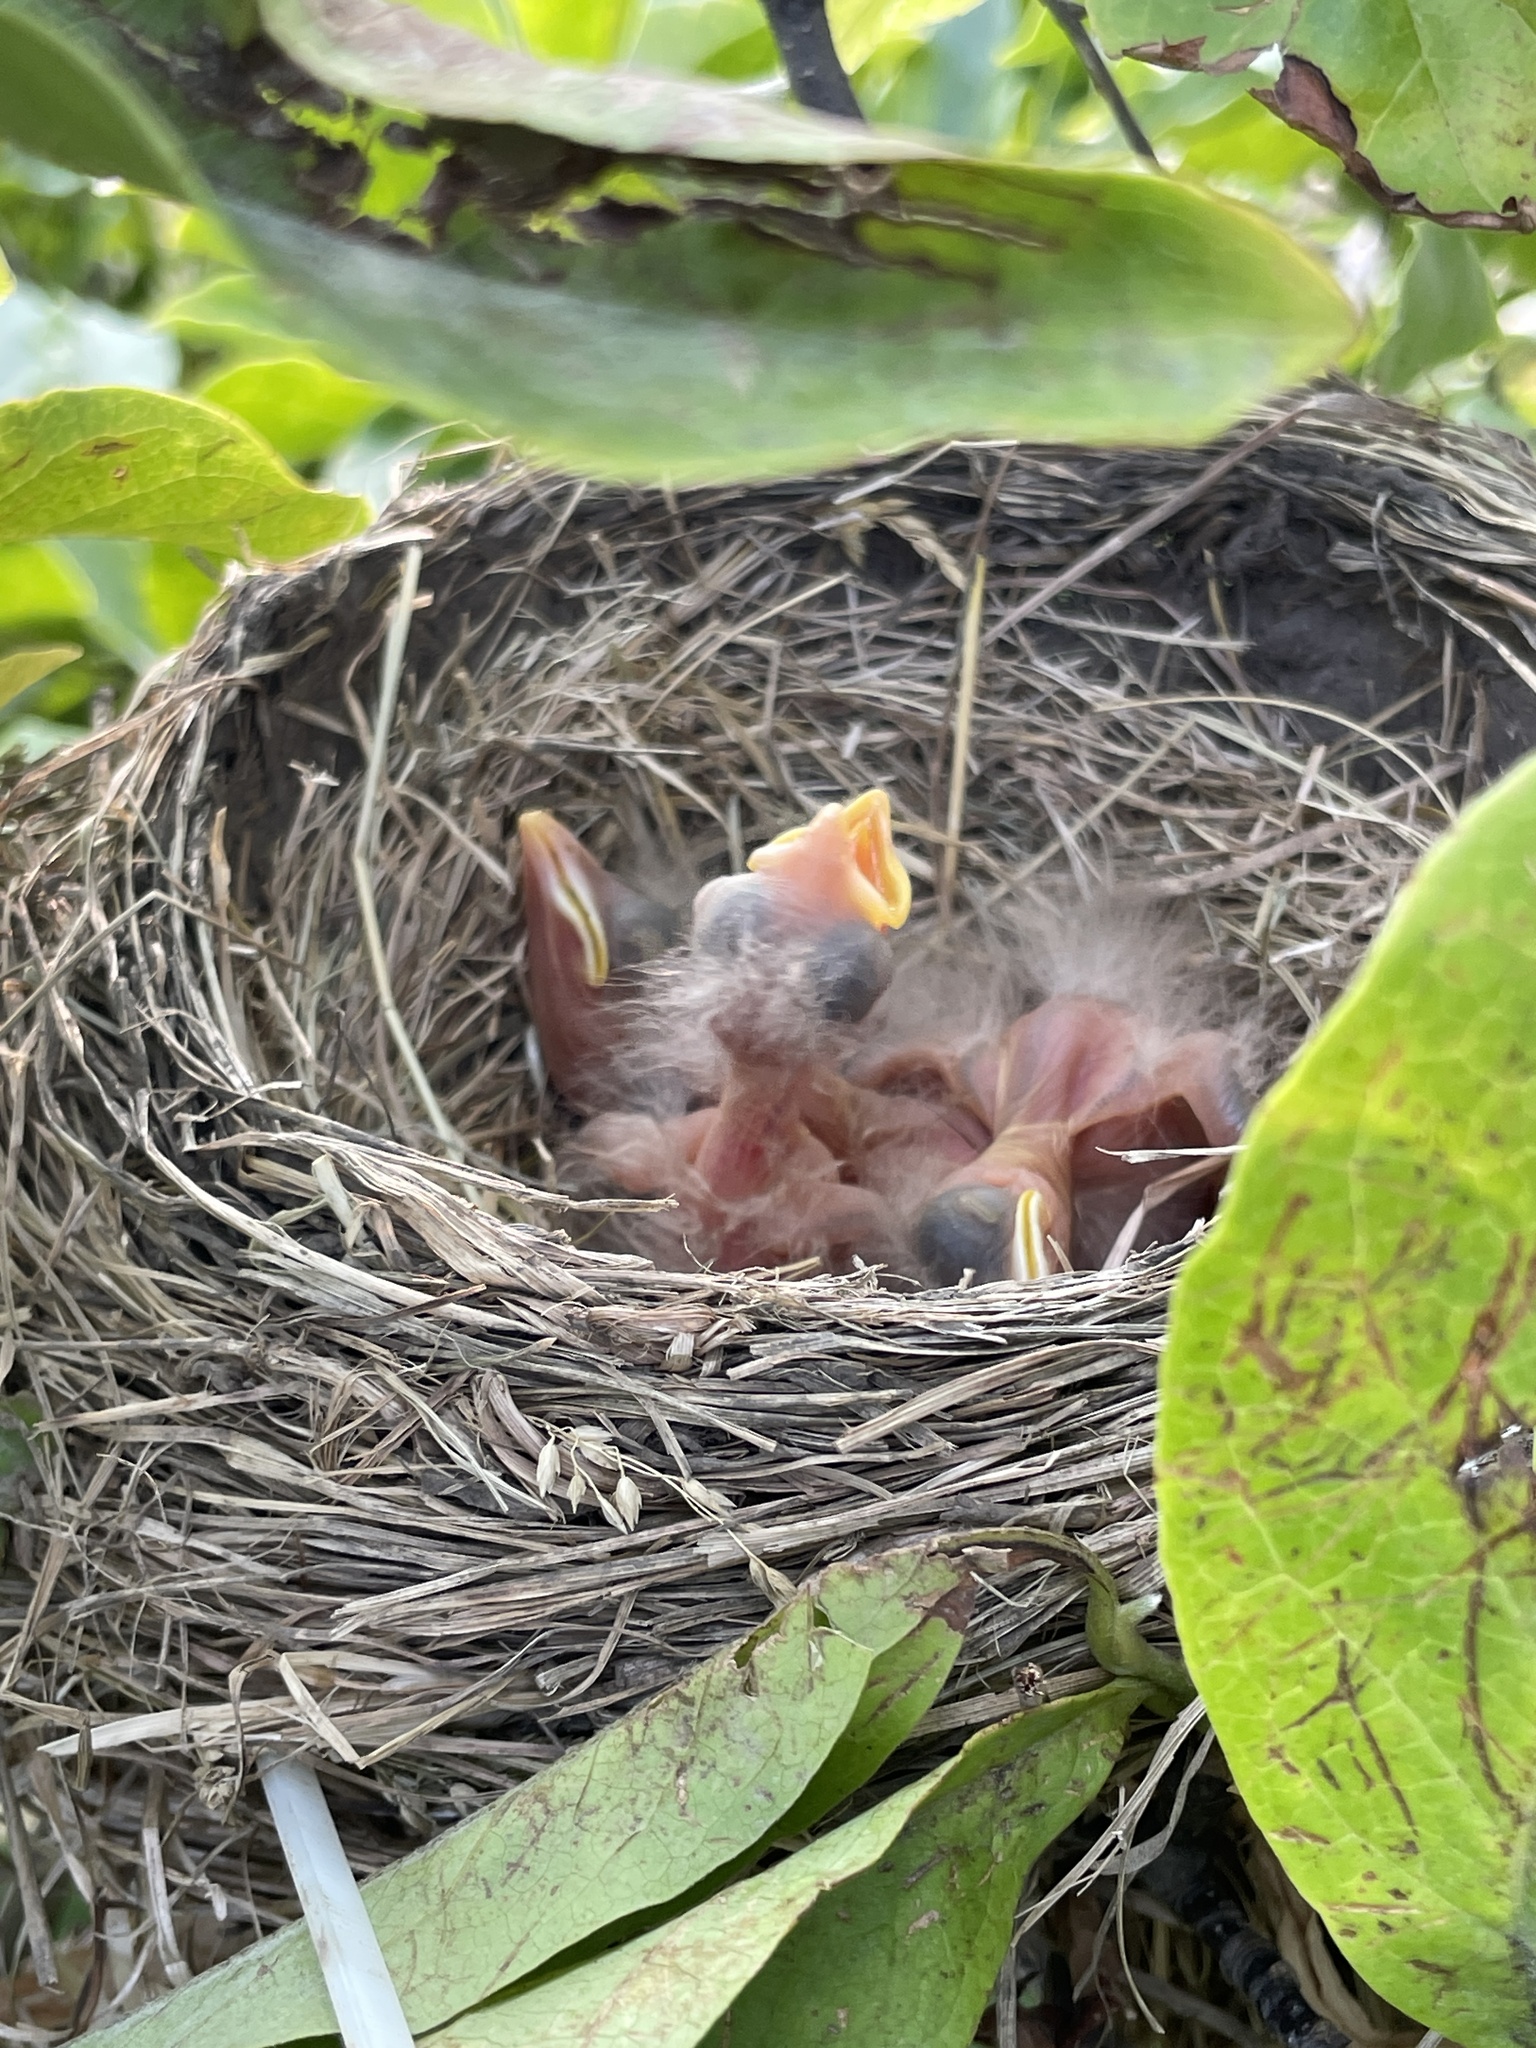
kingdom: Animalia
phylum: Chordata
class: Aves
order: Passeriformes
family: Turdidae
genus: Turdus
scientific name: Turdus migratorius
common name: American robin
